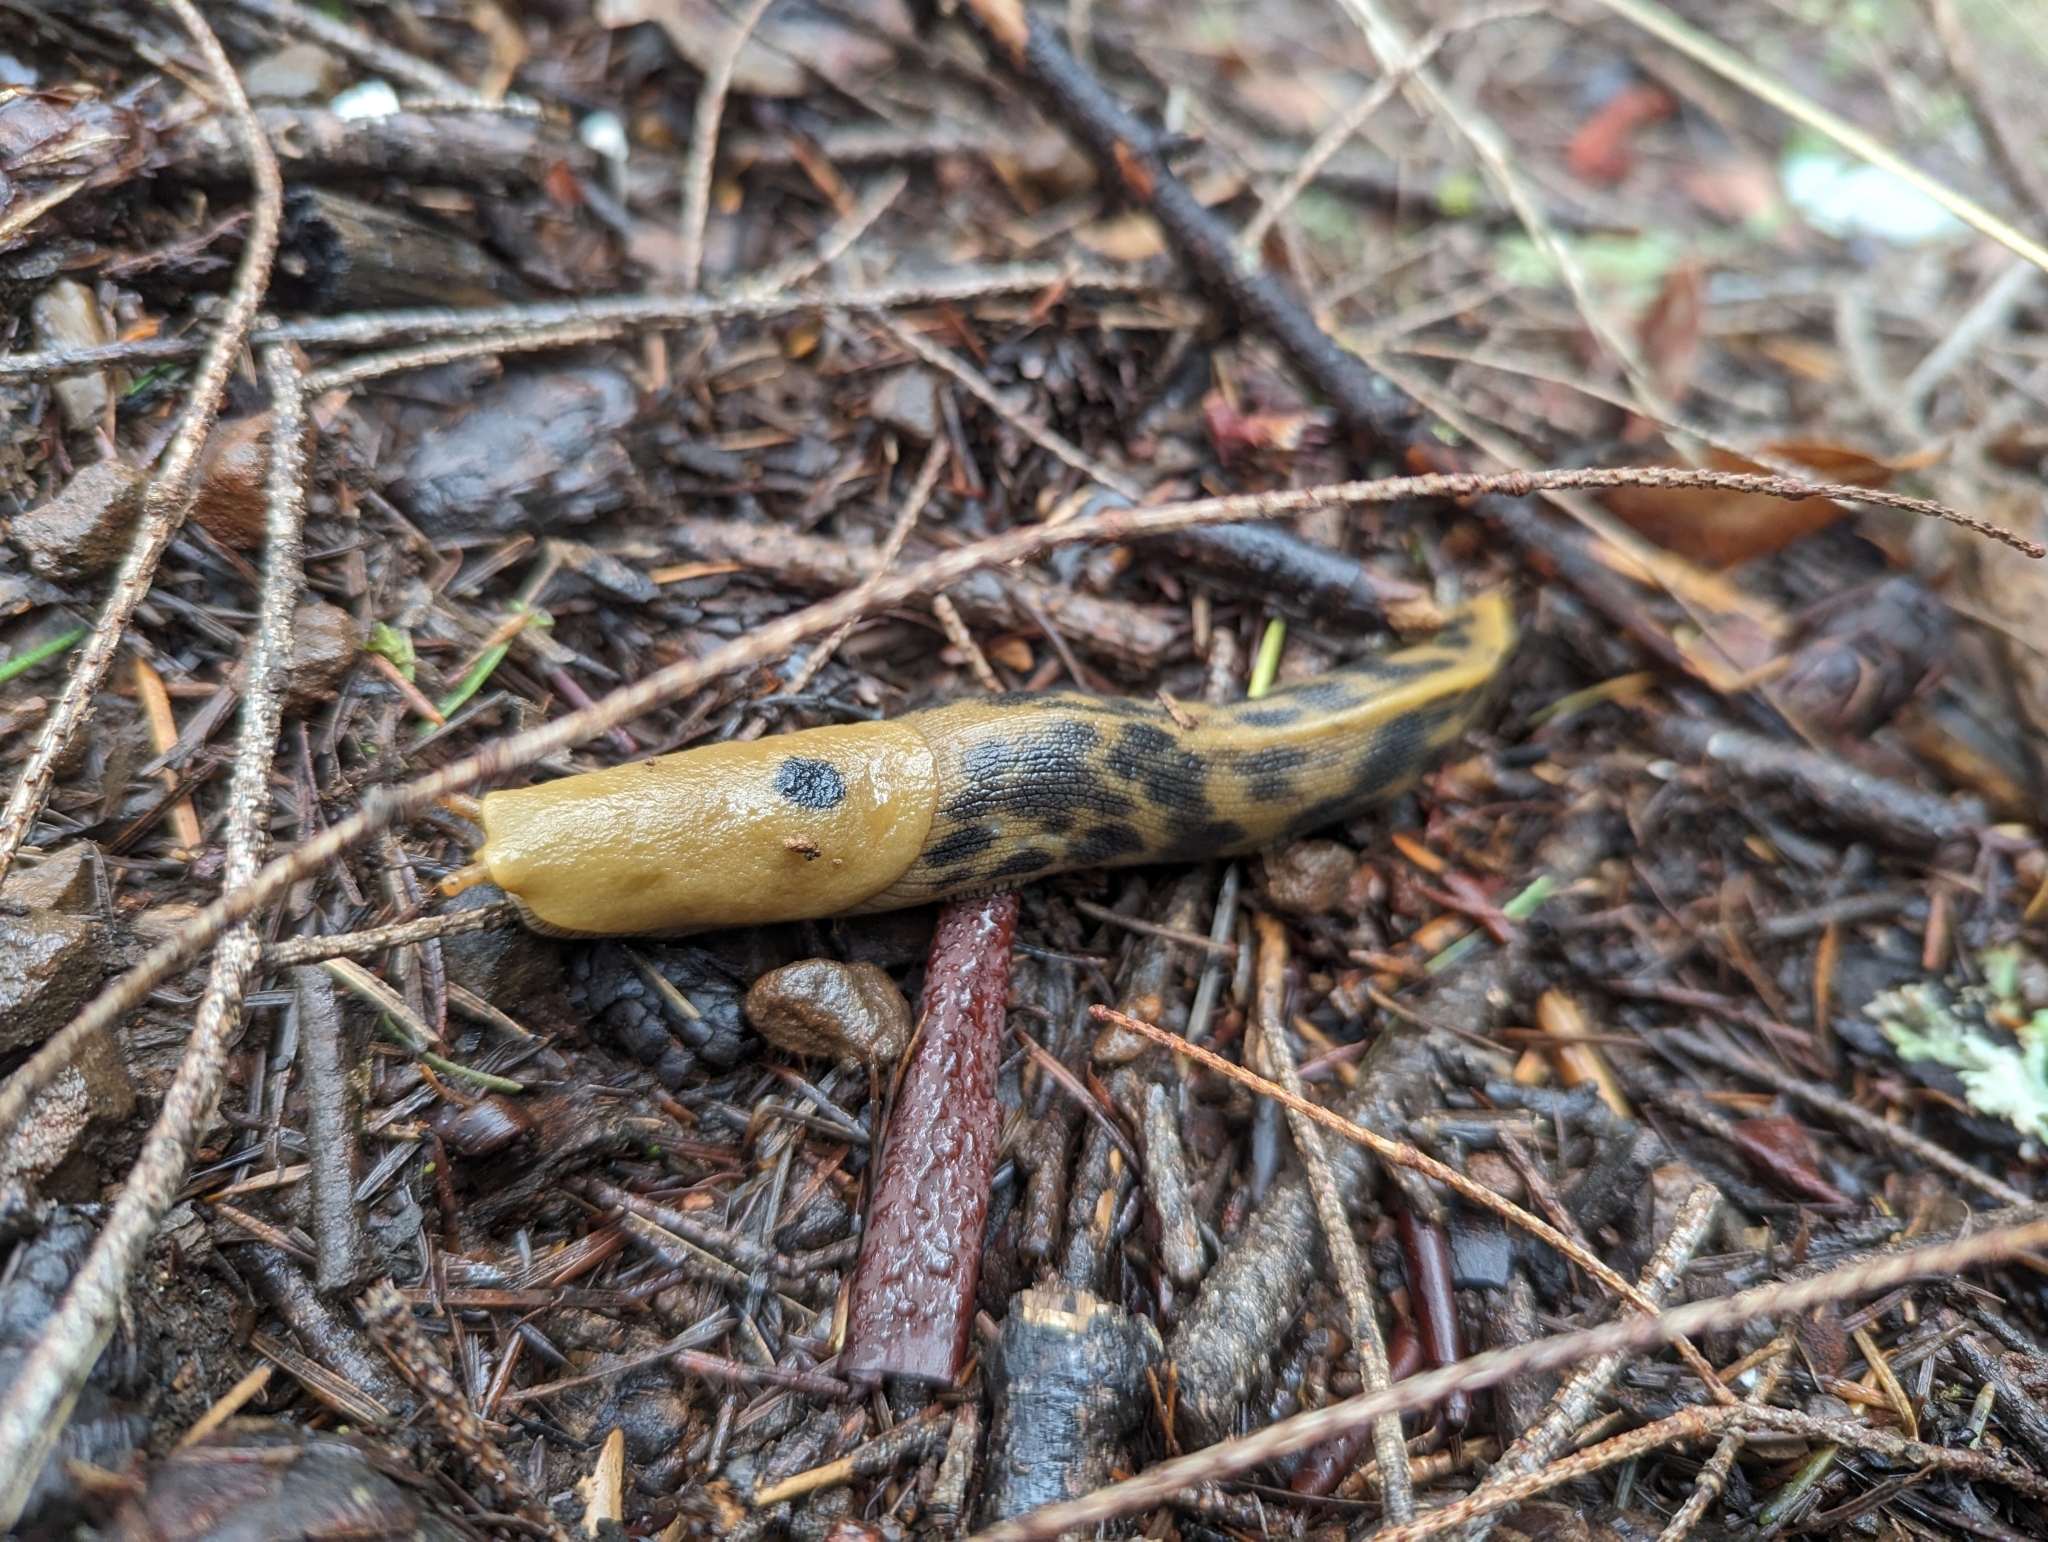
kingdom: Animalia
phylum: Mollusca
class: Gastropoda
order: Stylommatophora
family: Ariolimacidae
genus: Ariolimax
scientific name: Ariolimax buttoni
